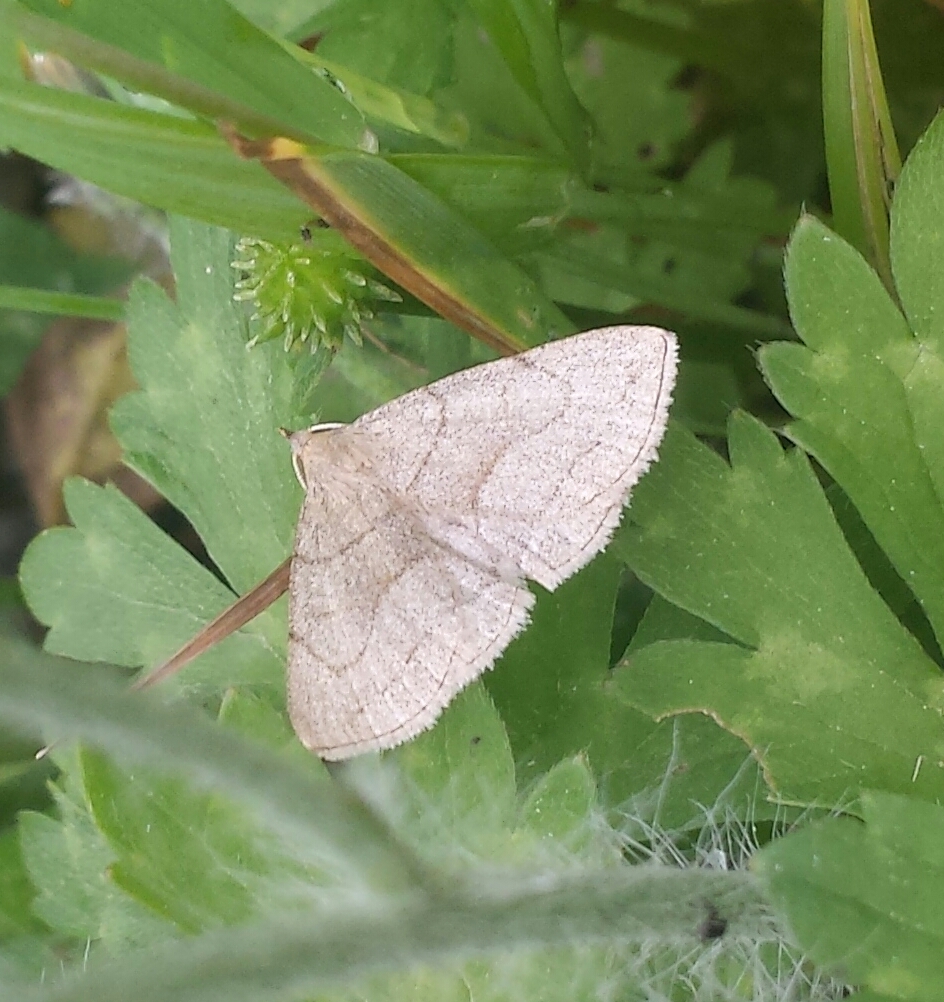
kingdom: Animalia
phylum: Arthropoda
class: Insecta
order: Lepidoptera
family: Erebidae
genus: Zanclognatha
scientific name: Zanclognatha pedipilalis
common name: Grayish fan-foot
